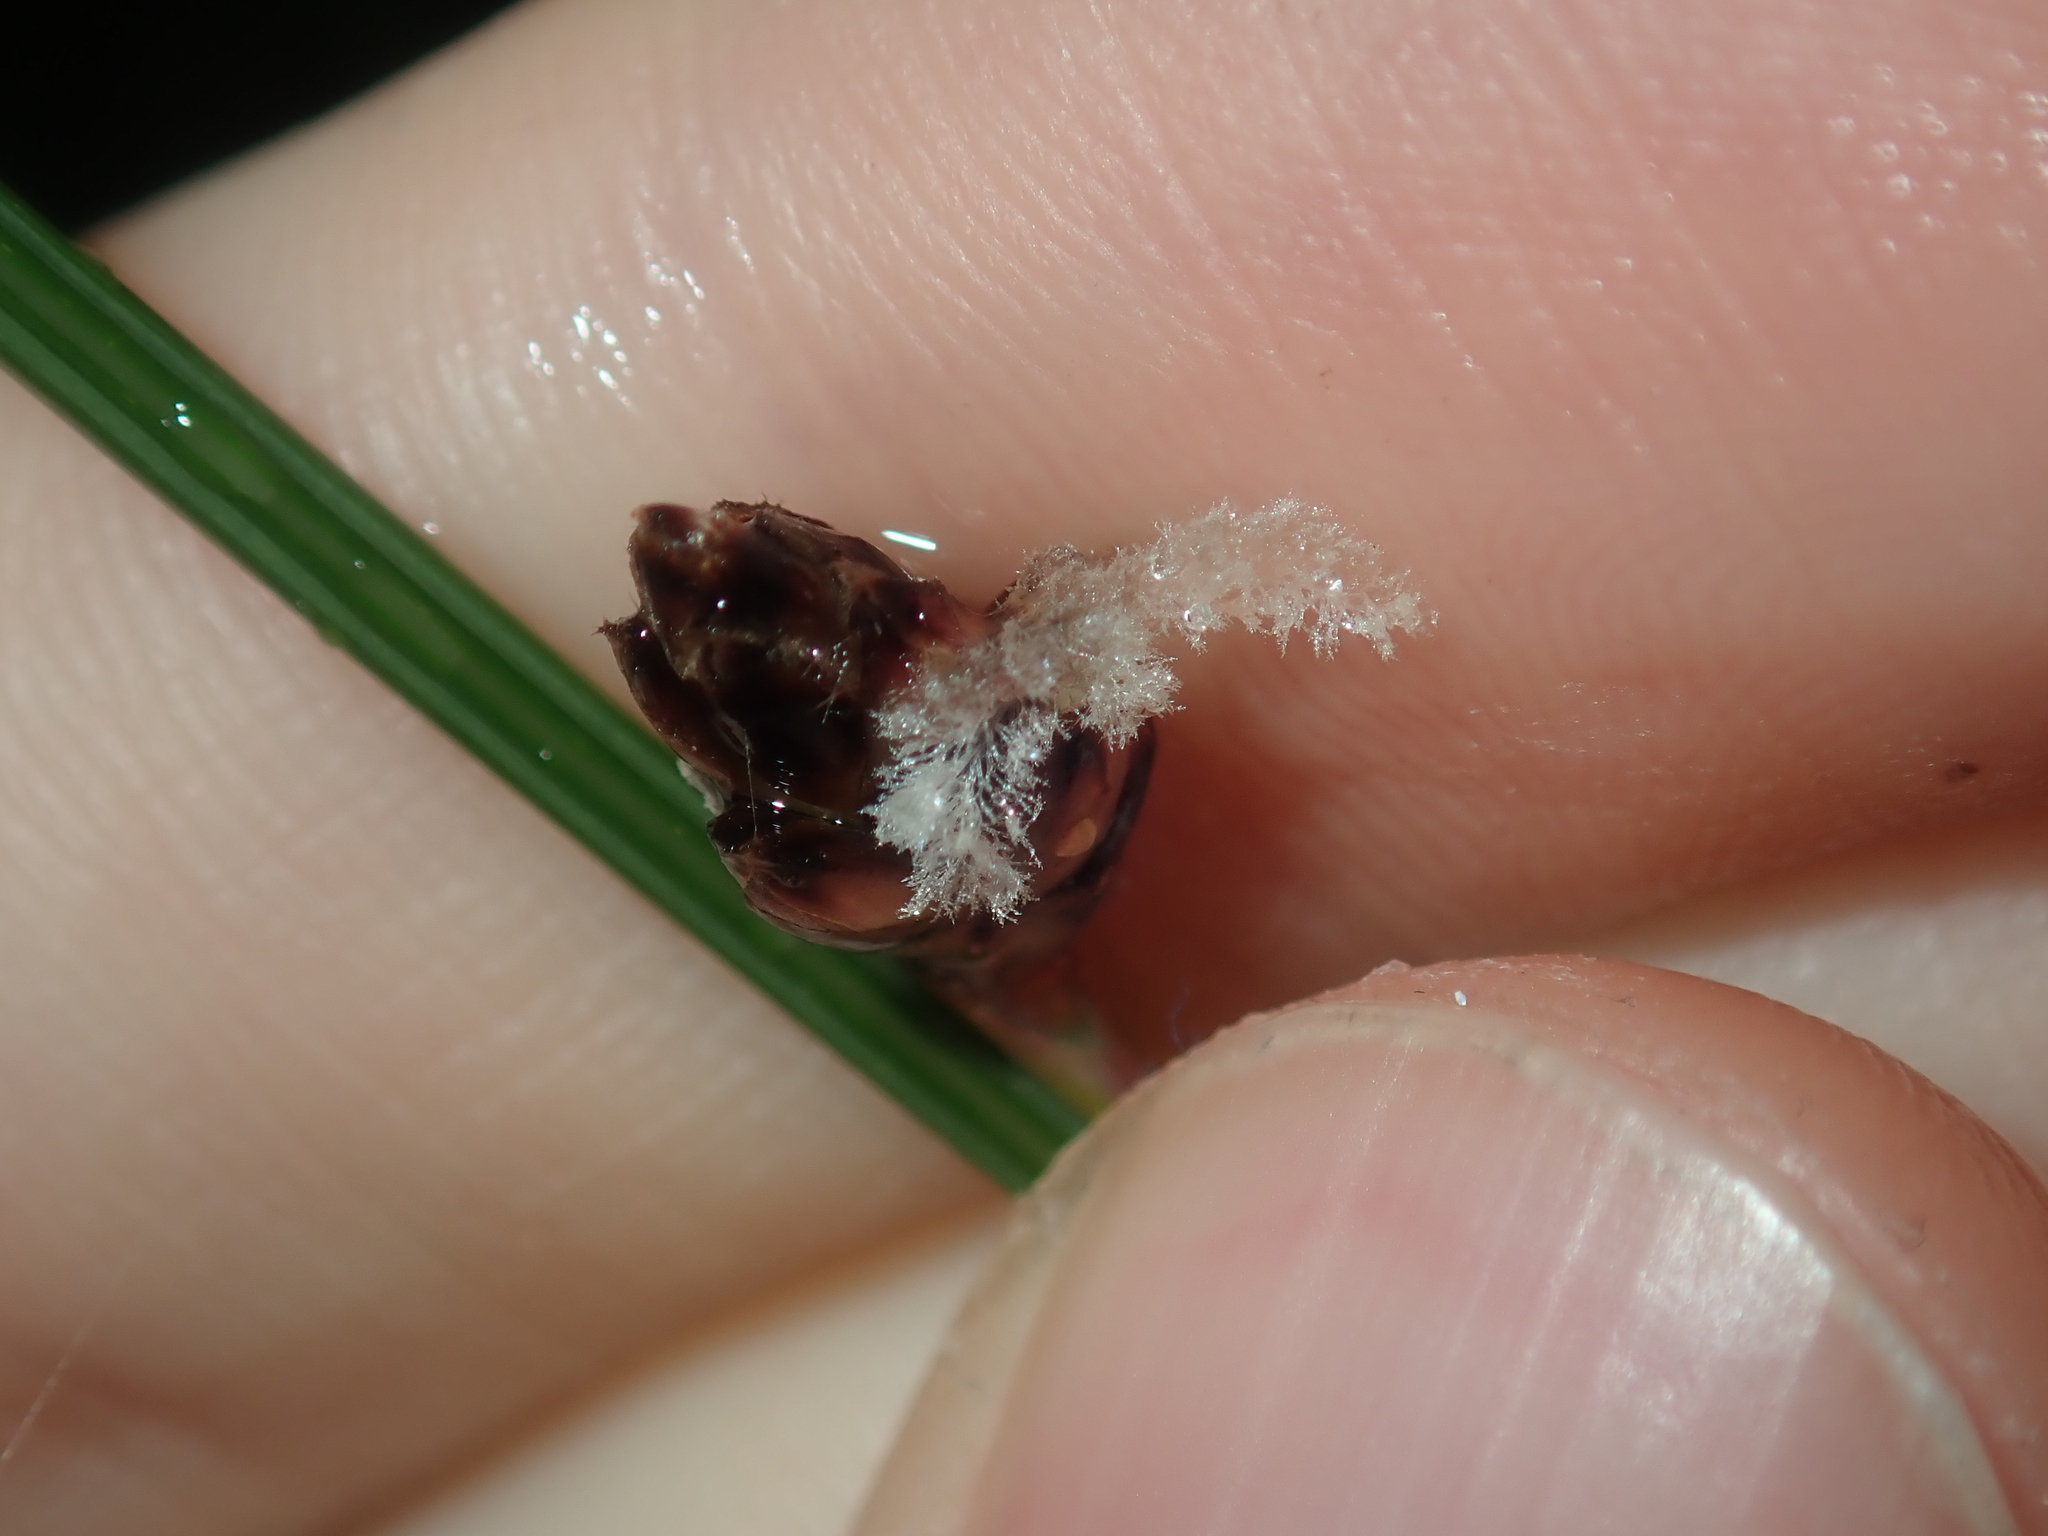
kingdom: Plantae
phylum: Tracheophyta
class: Liliopsida
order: Poales
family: Ecdeiocoleaceae
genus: Ecdeiocolea
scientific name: Ecdeiocolea monostachya
